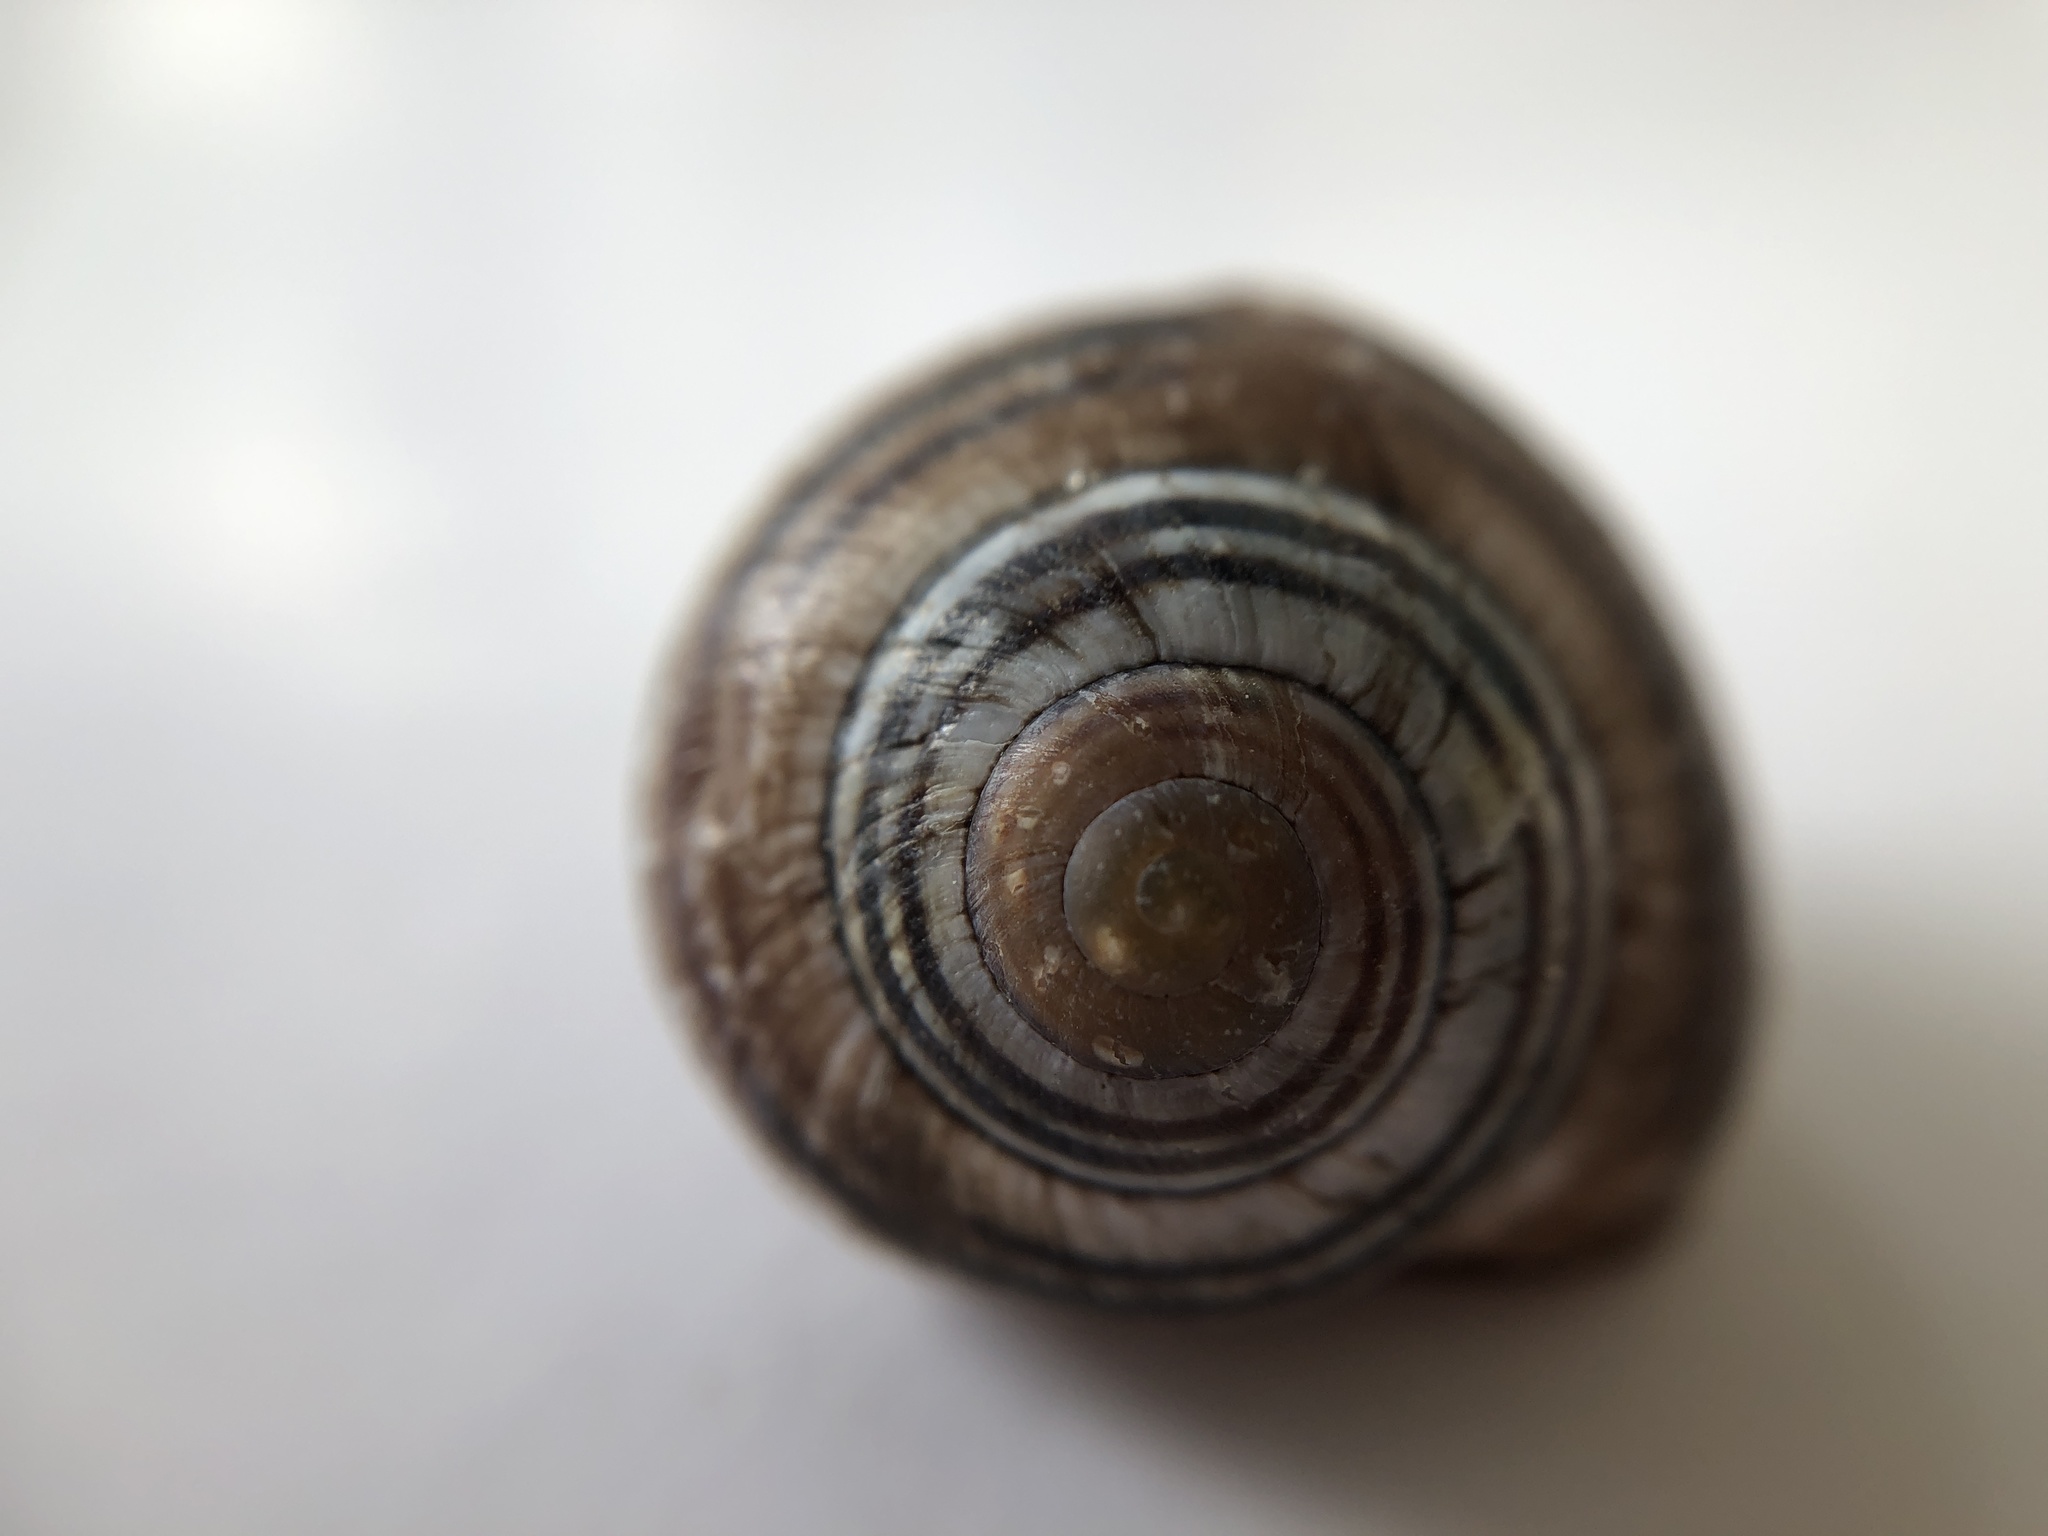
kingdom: Animalia
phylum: Mollusca
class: Gastropoda
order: Stylommatophora
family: Helicidae
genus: Cepaea
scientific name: Cepaea nemoralis
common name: Grovesnail
